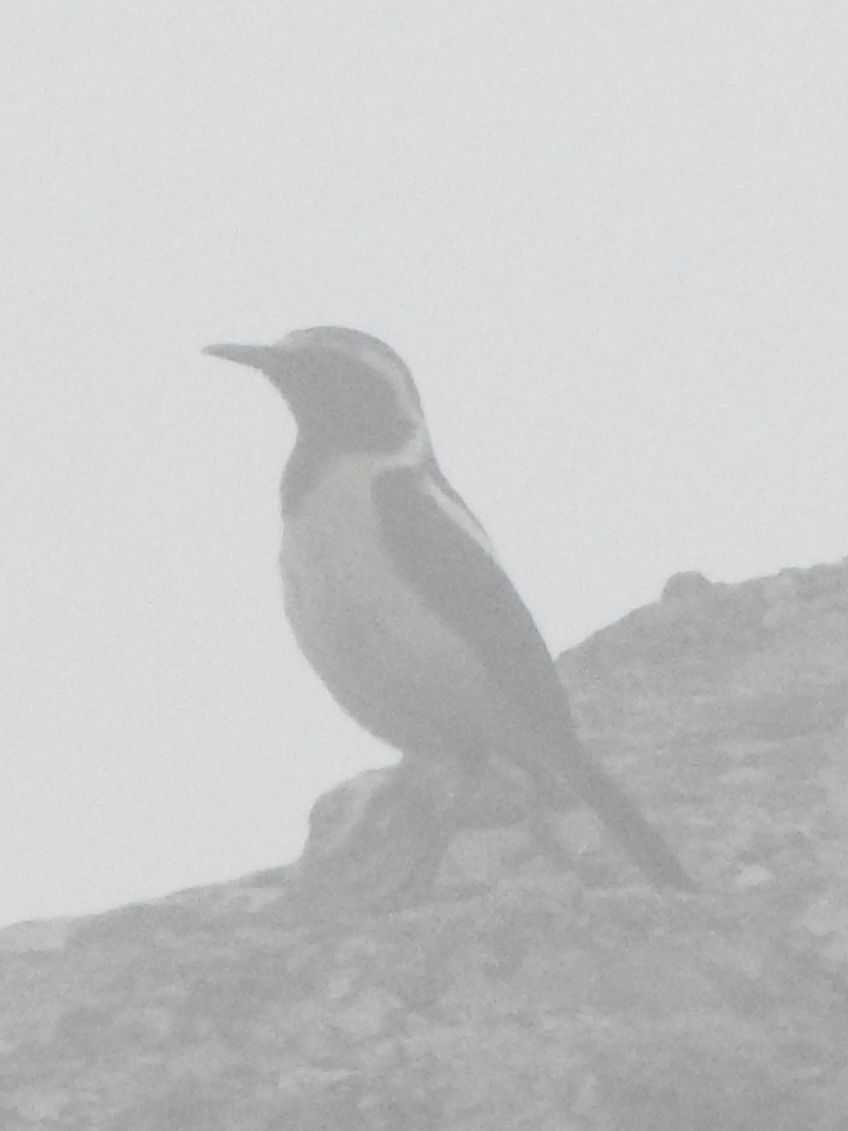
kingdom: Animalia
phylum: Chordata
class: Aves
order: Passeriformes
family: Muscicapidae
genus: Campicoloides
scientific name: Campicoloides bifasciatus
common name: Buff-streaked chat
